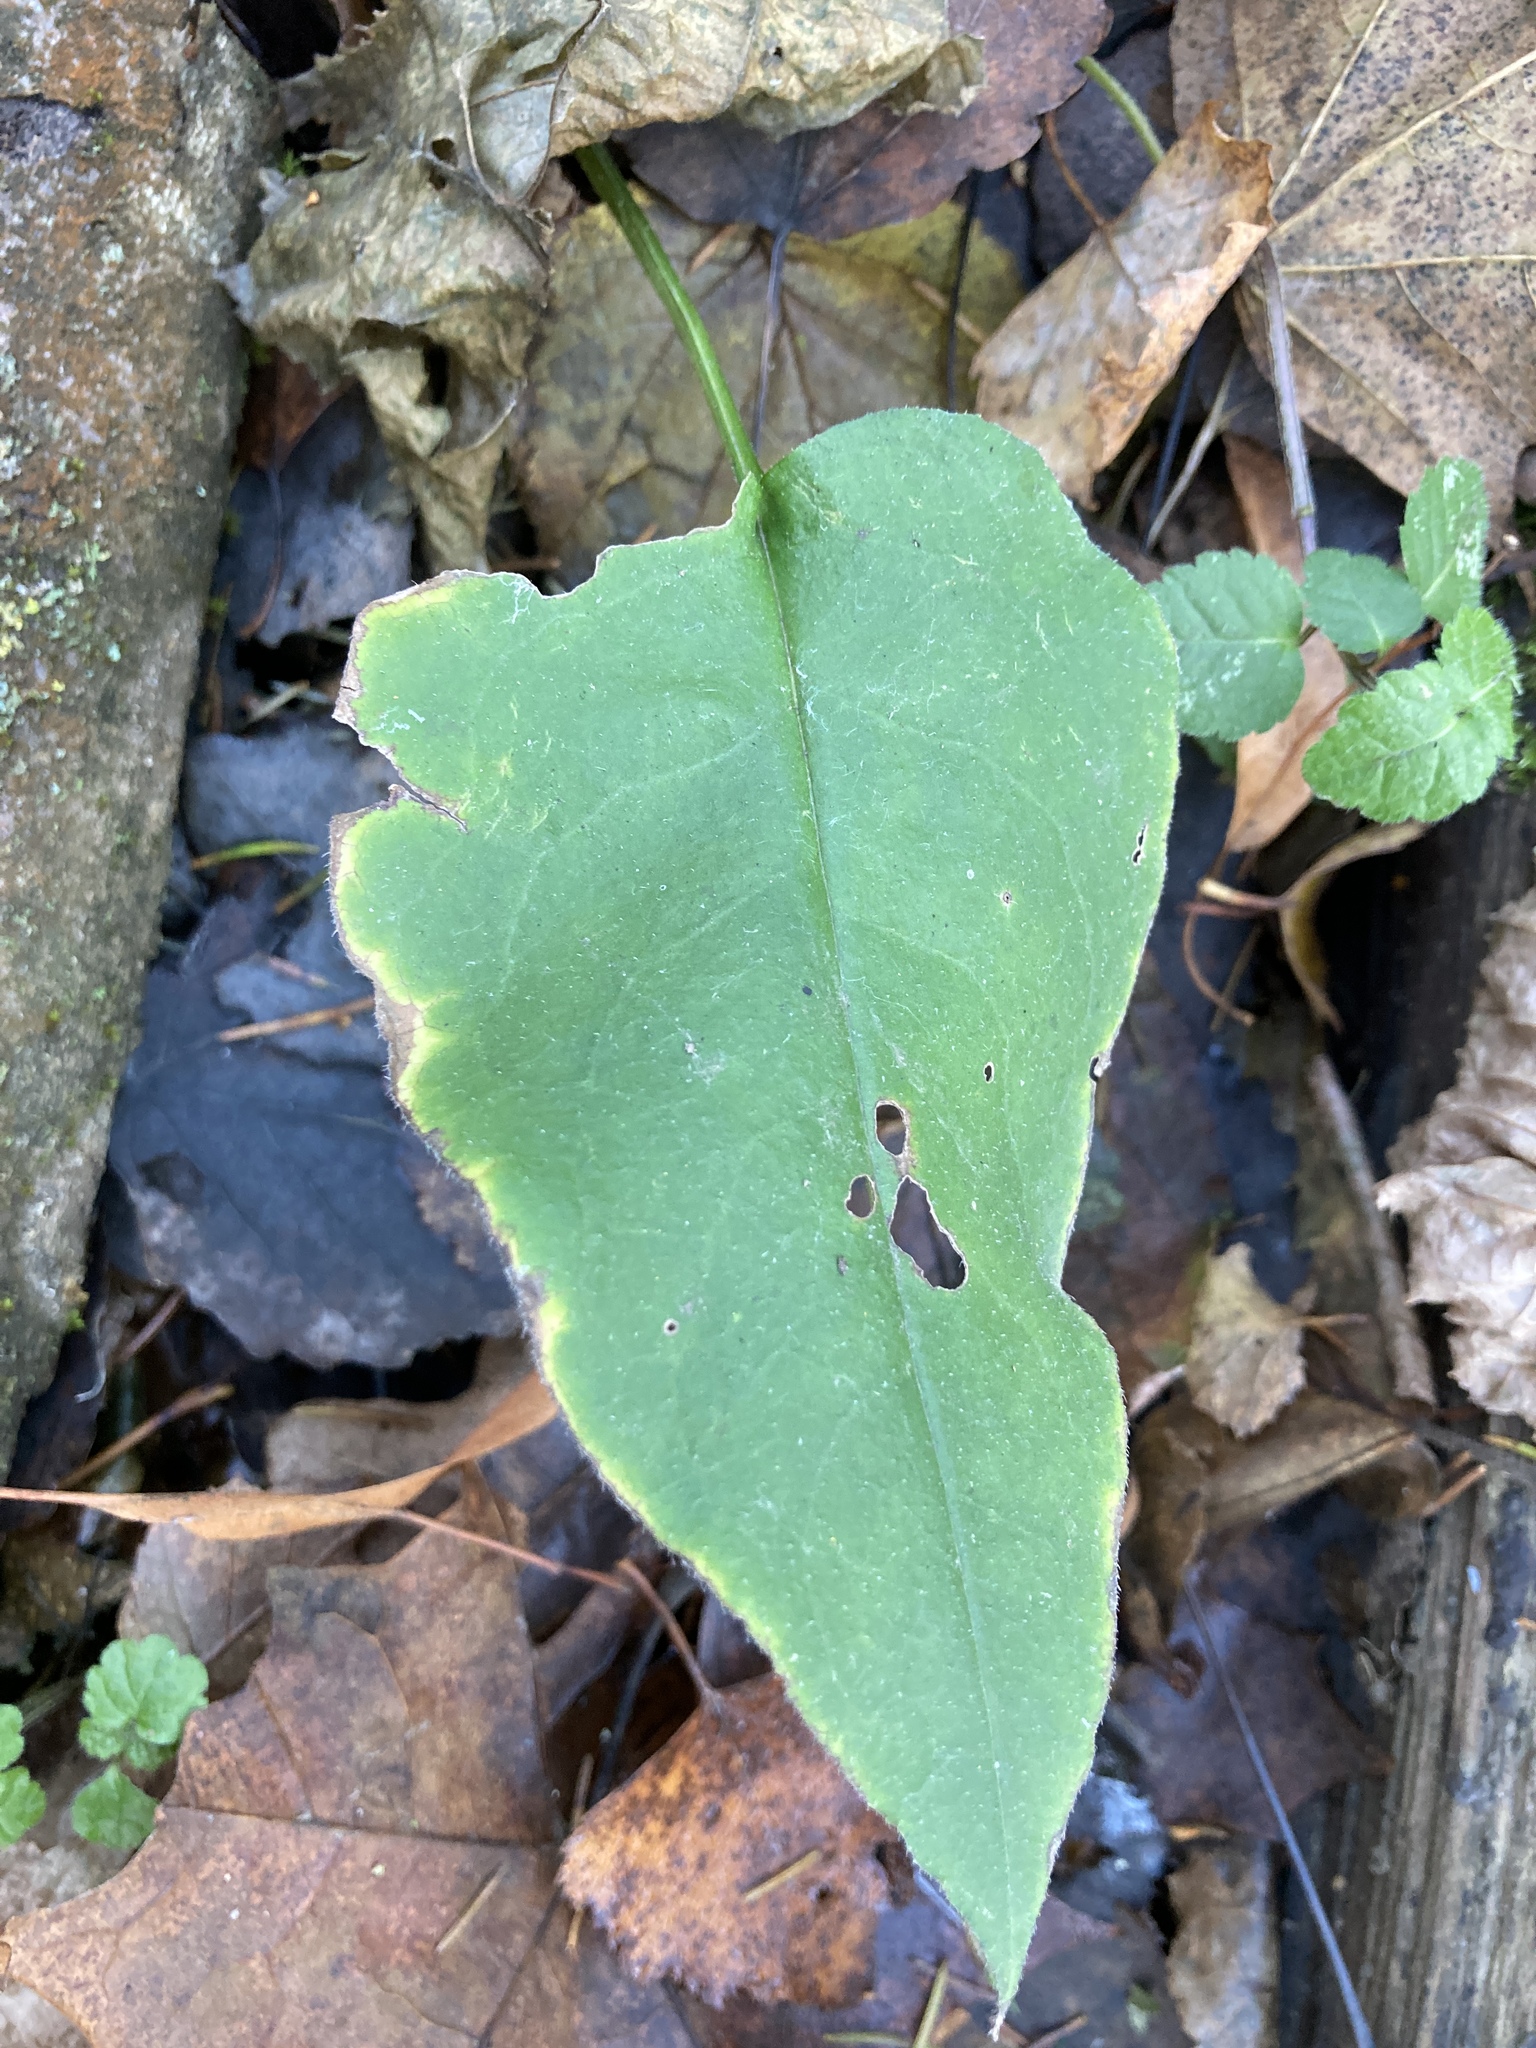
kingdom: Plantae
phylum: Tracheophyta
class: Magnoliopsida
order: Boraginales
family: Boraginaceae
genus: Pulmonaria
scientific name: Pulmonaria obscura
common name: Suffolk lungwort
